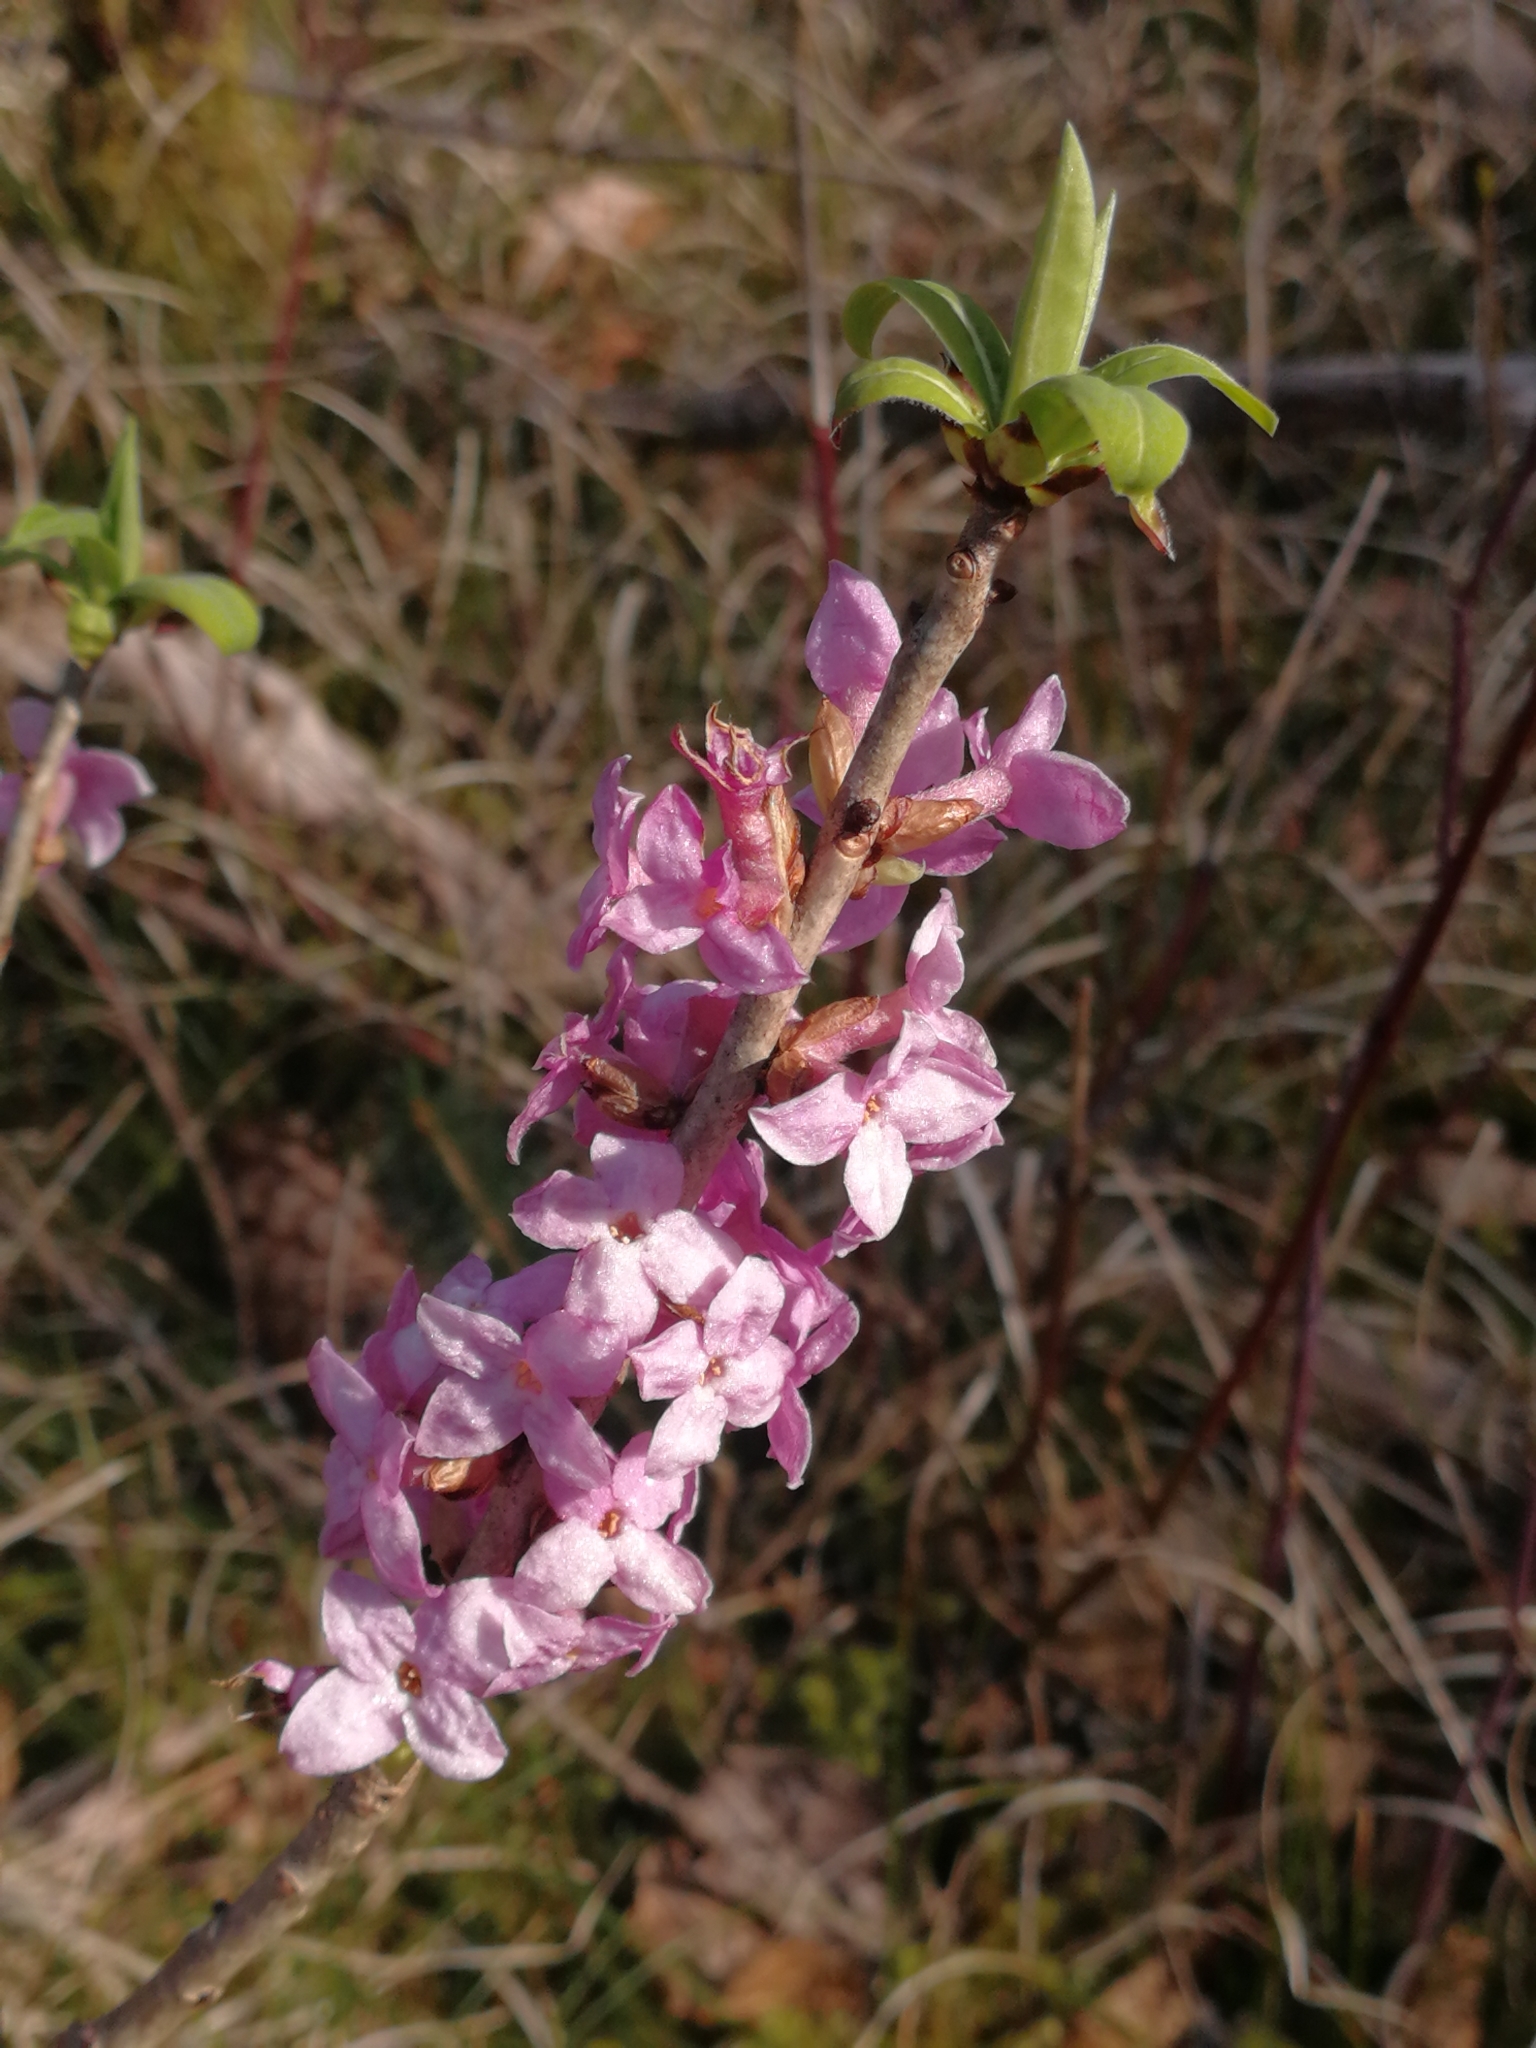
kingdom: Plantae
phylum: Tracheophyta
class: Magnoliopsida
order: Malvales
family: Thymelaeaceae
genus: Daphne
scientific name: Daphne mezereum
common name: Mezereon
